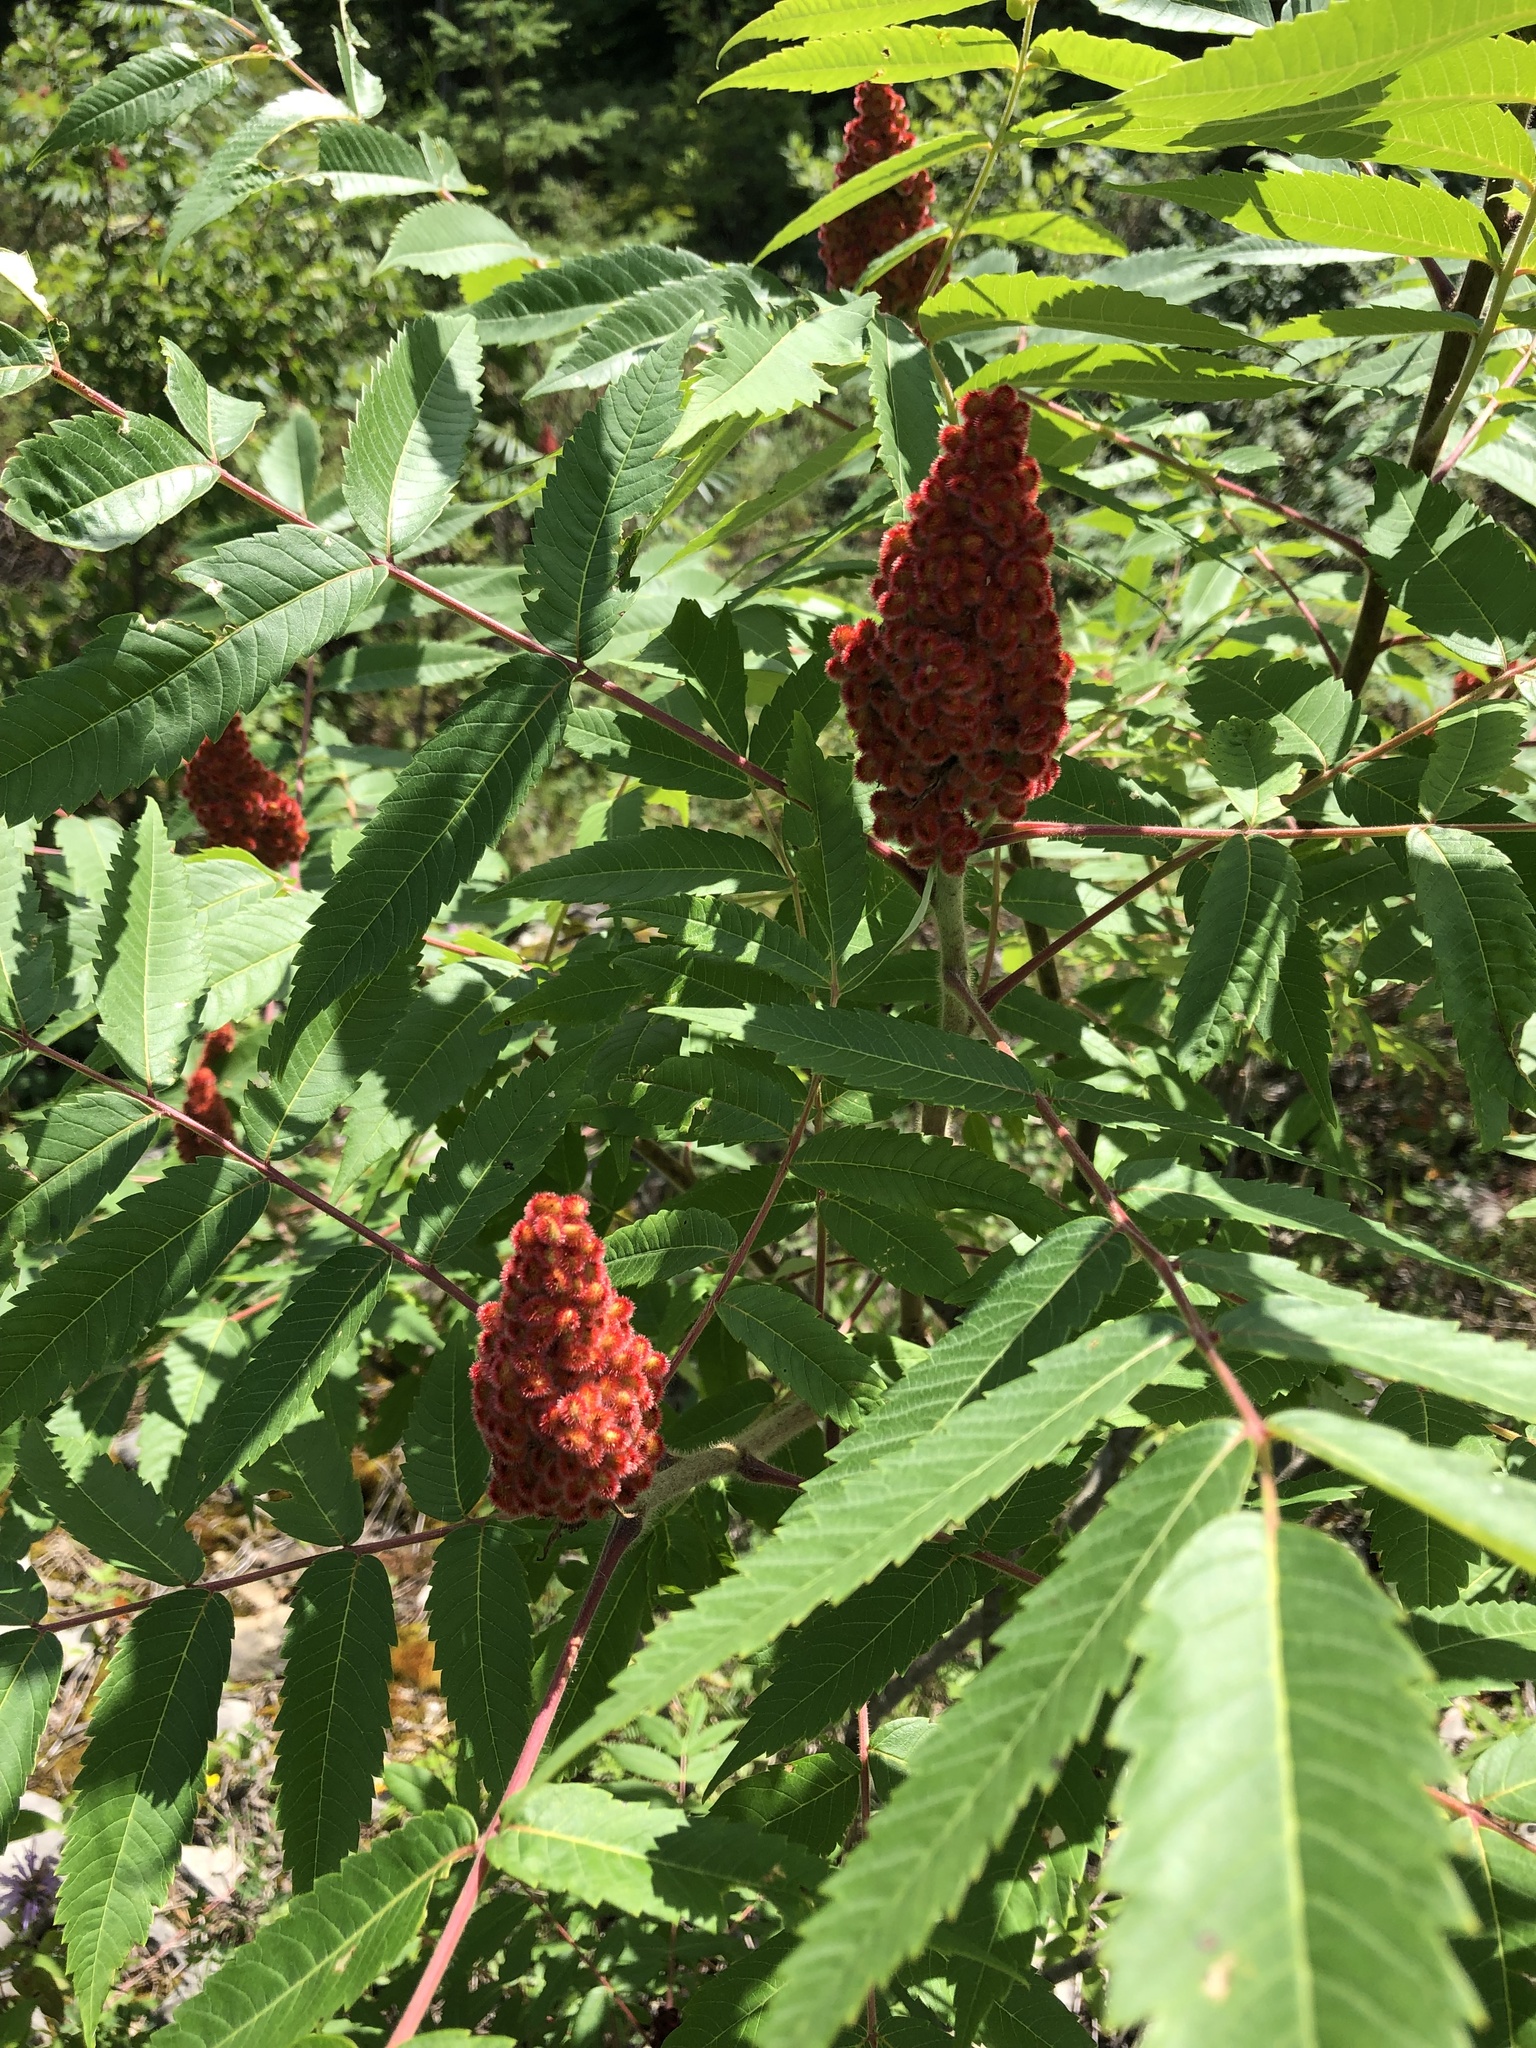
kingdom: Plantae
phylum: Tracheophyta
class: Magnoliopsida
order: Sapindales
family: Anacardiaceae
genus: Rhus
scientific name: Rhus typhina
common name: Staghorn sumac
